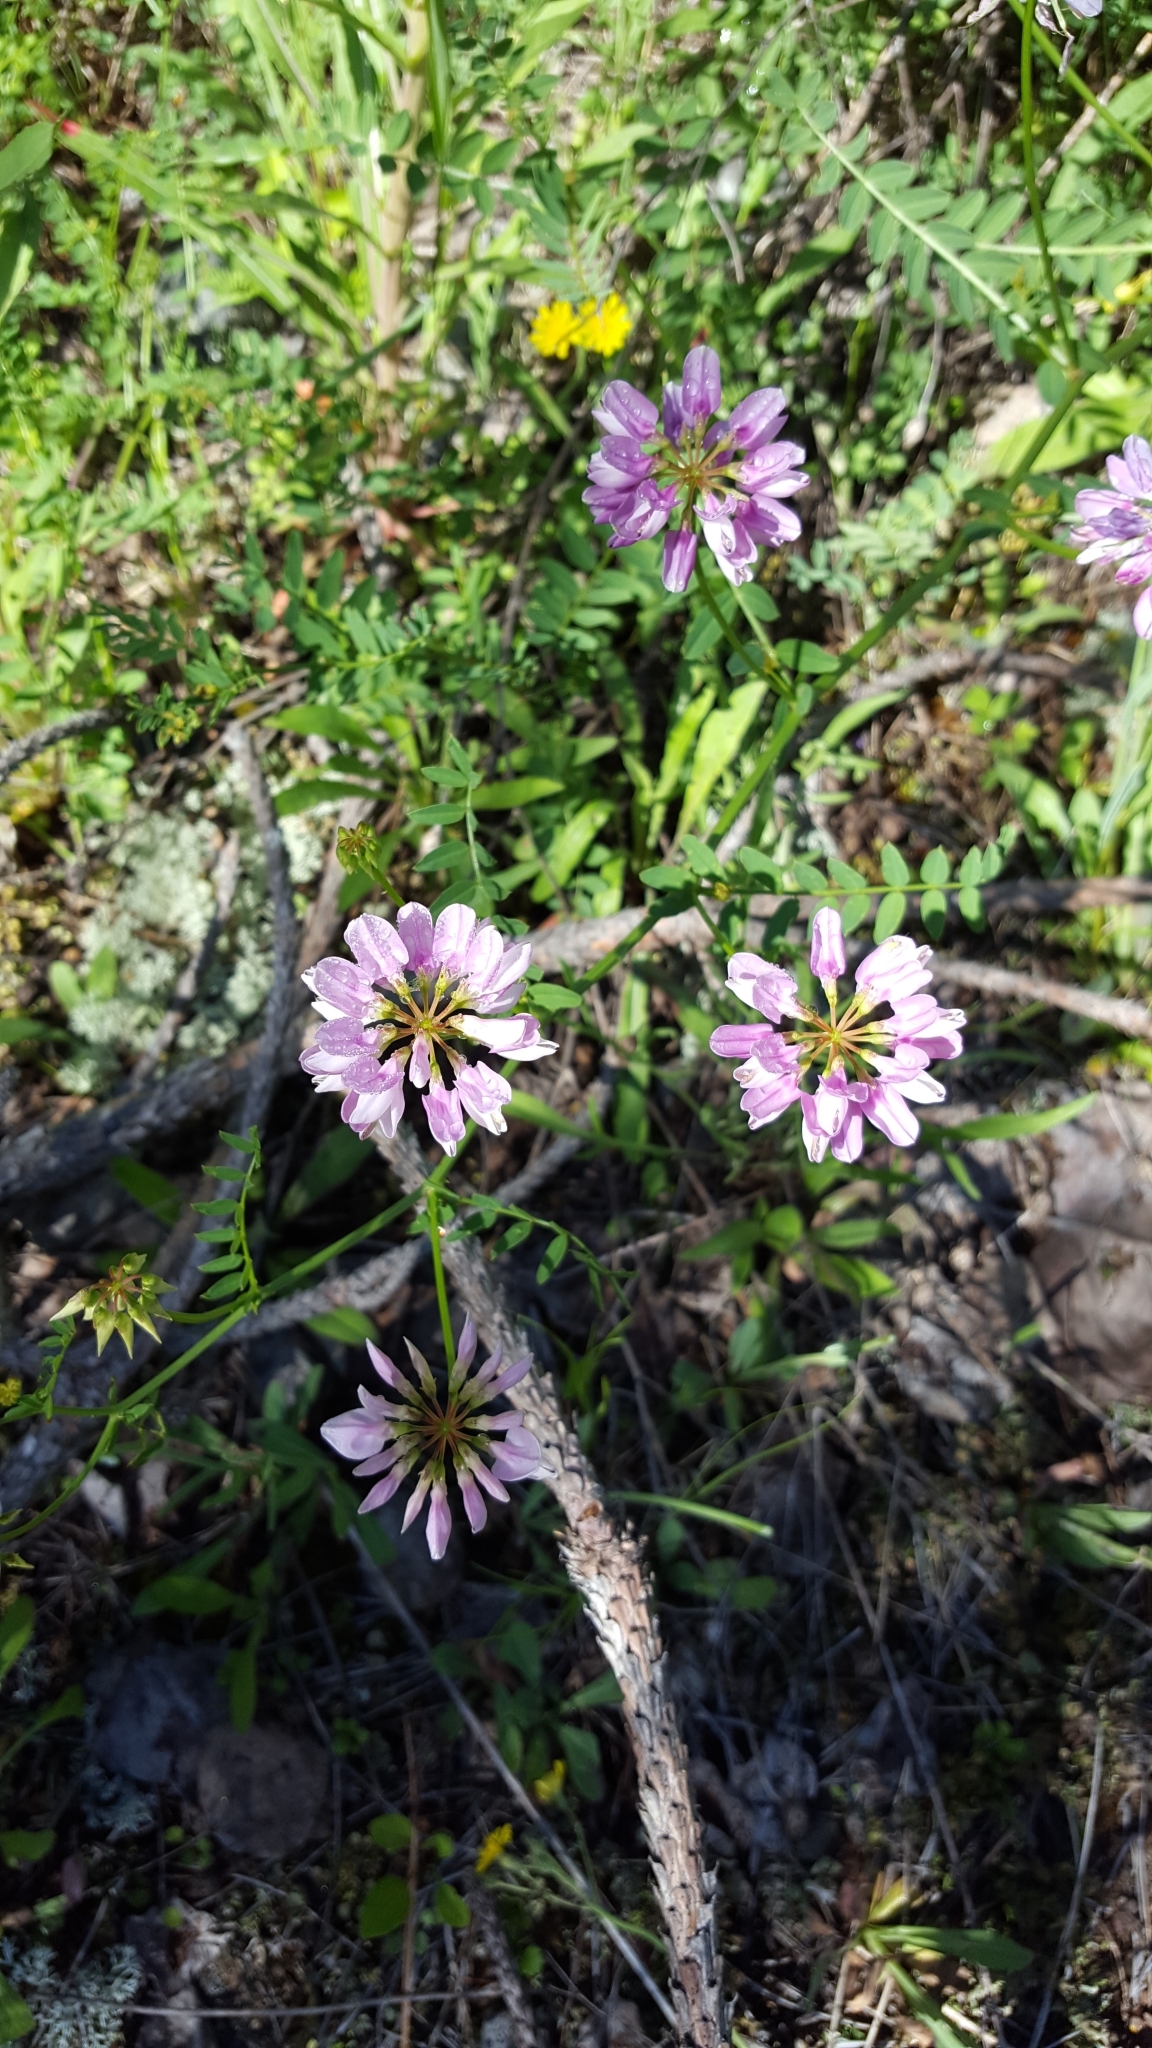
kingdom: Plantae
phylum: Tracheophyta
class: Magnoliopsida
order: Fabales
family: Fabaceae
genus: Coronilla
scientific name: Coronilla varia
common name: Crownvetch
